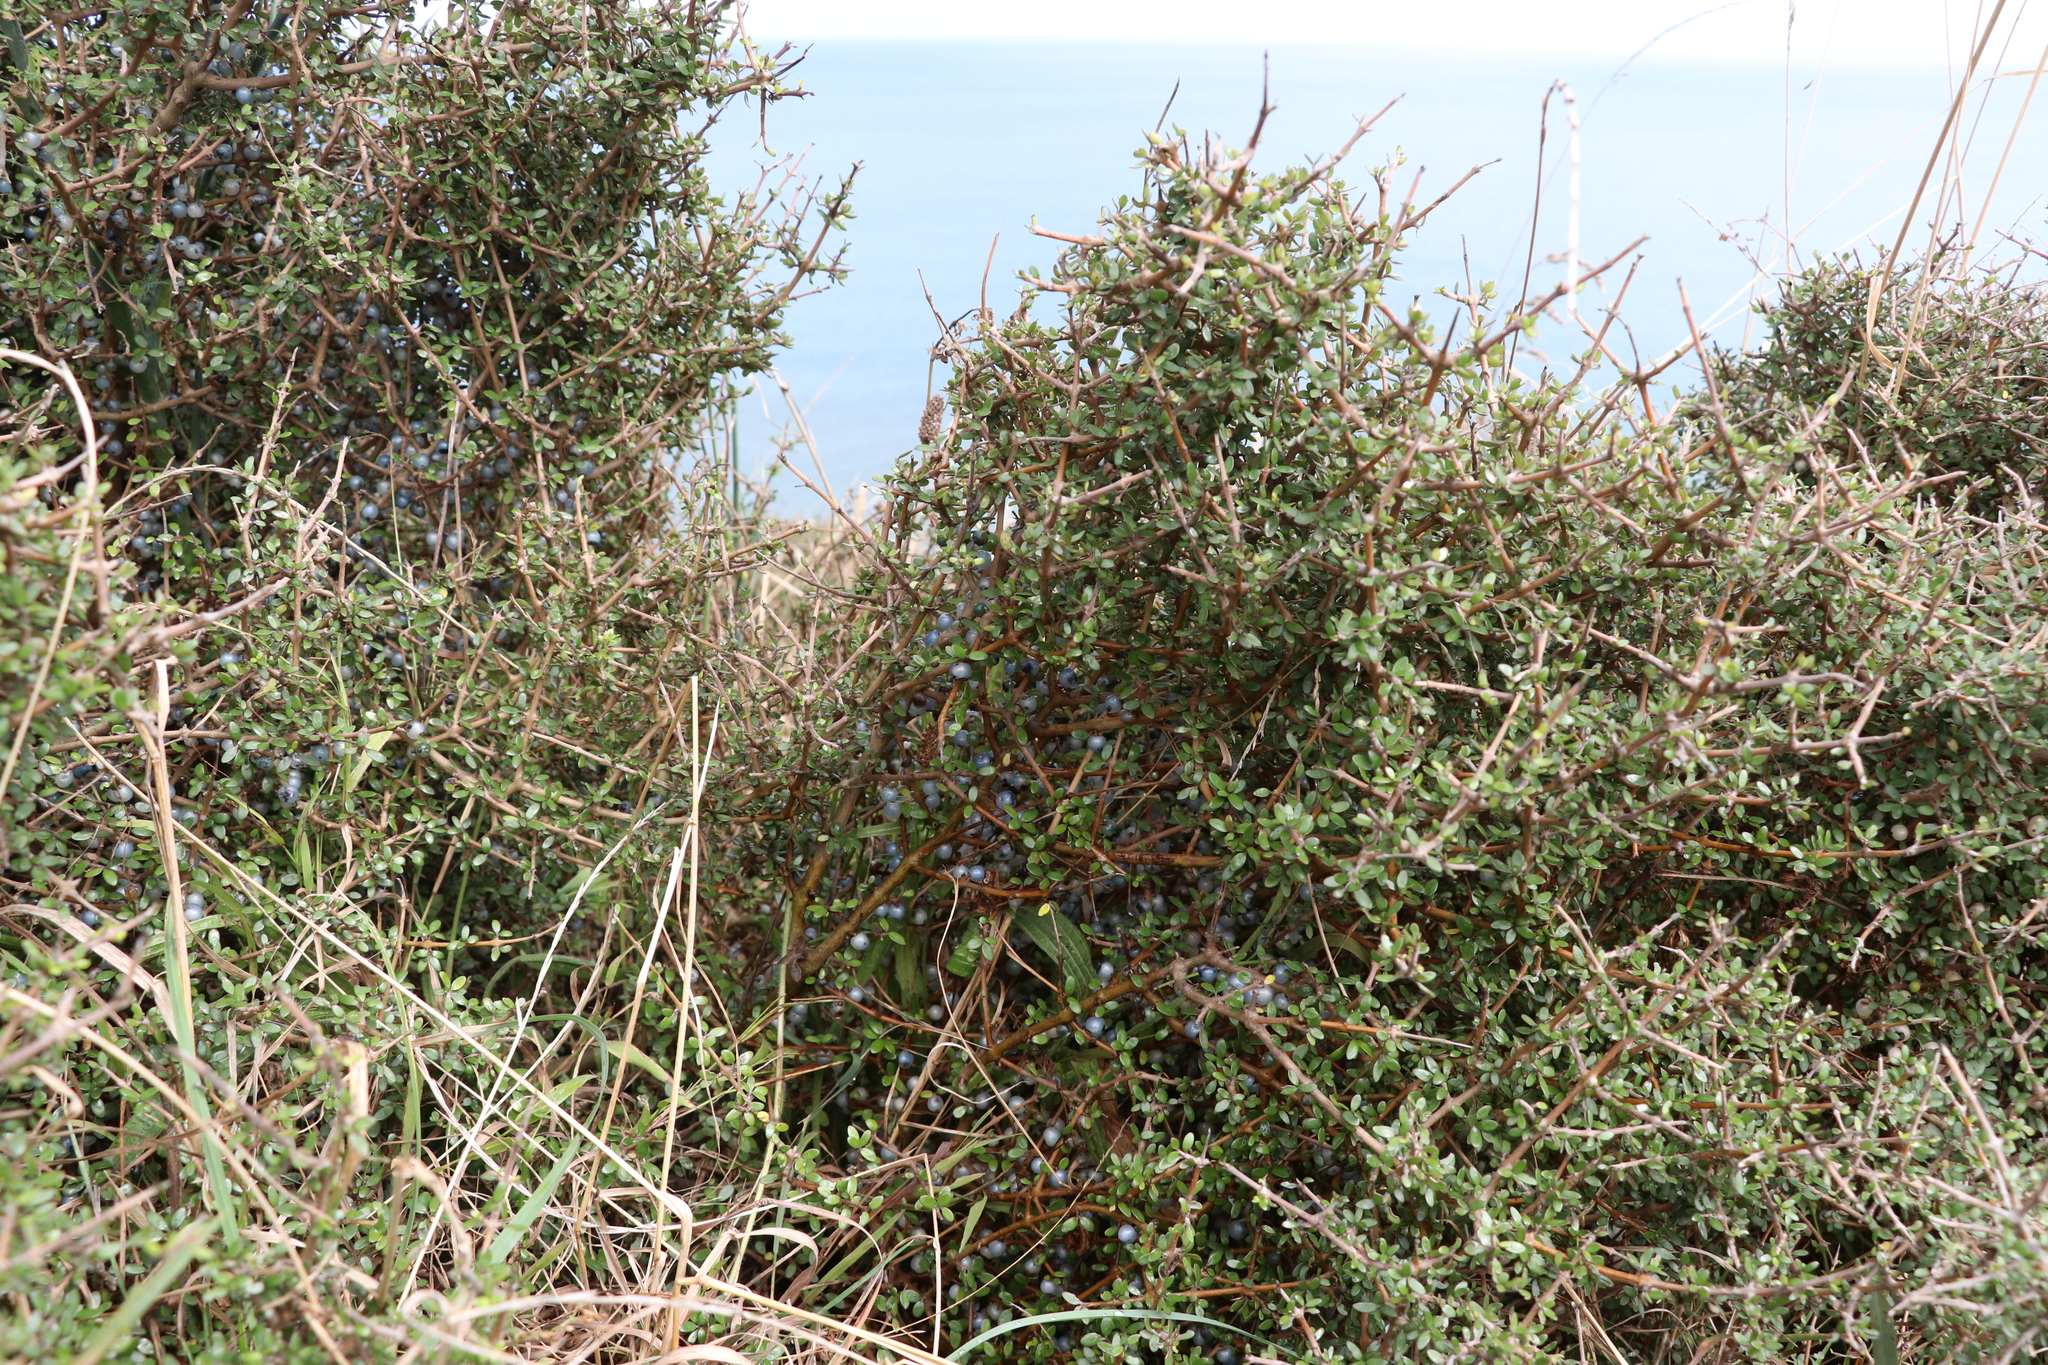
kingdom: Plantae
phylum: Tracheophyta
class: Magnoliopsida
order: Gentianales
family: Rubiaceae
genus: Coprosma
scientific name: Coprosma propinqua
